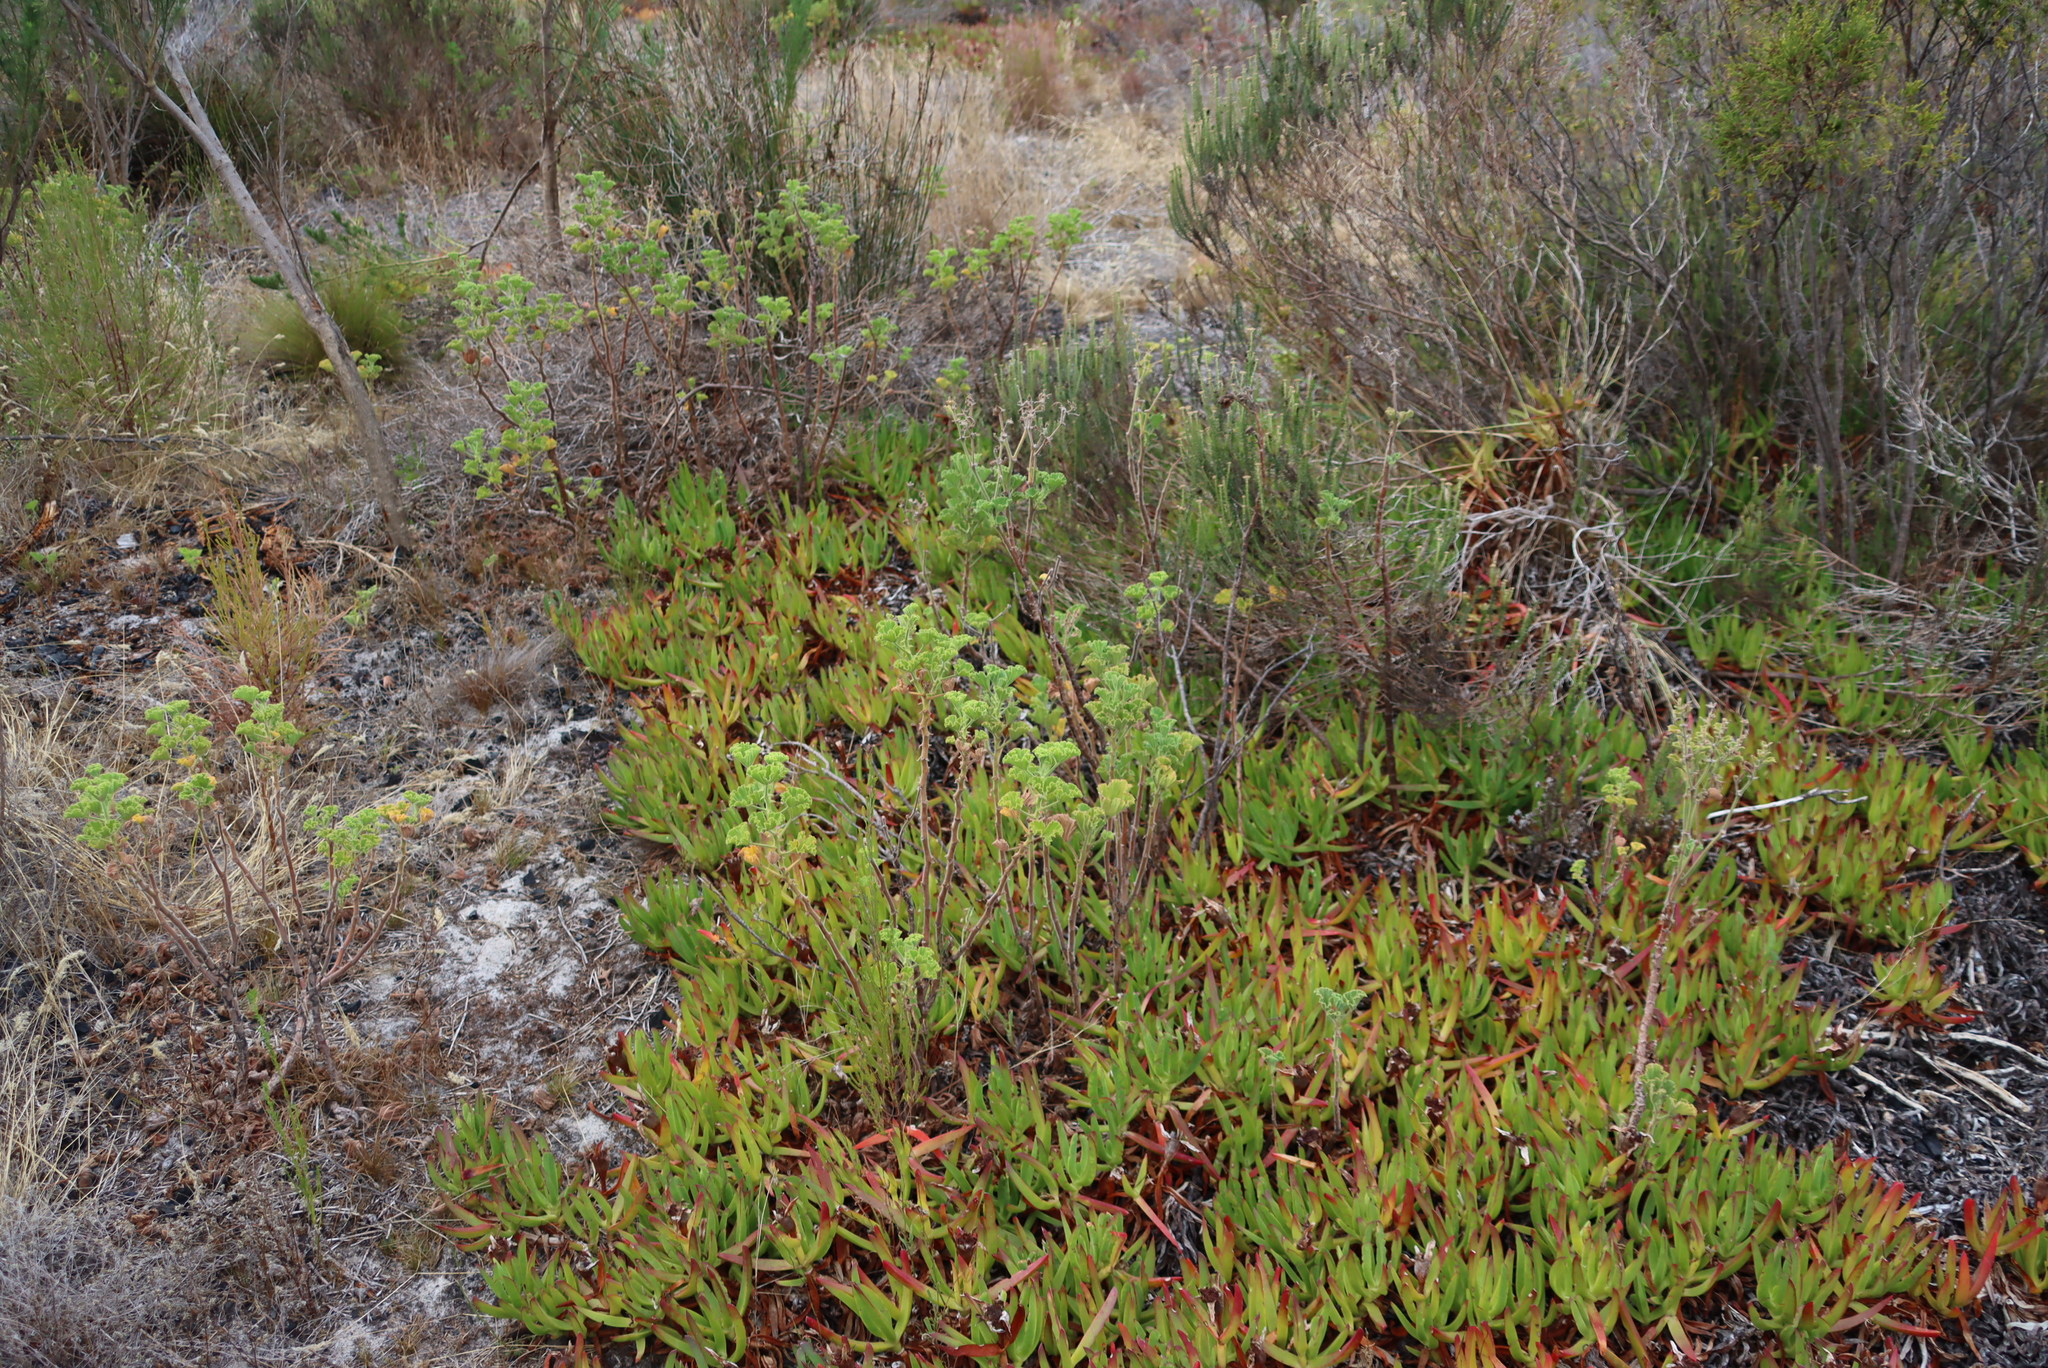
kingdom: Plantae
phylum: Tracheophyta
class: Magnoliopsida
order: Geraniales
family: Geraniaceae
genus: Pelargonium
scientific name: Pelargonium cucullatum
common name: Tree pelargonium
